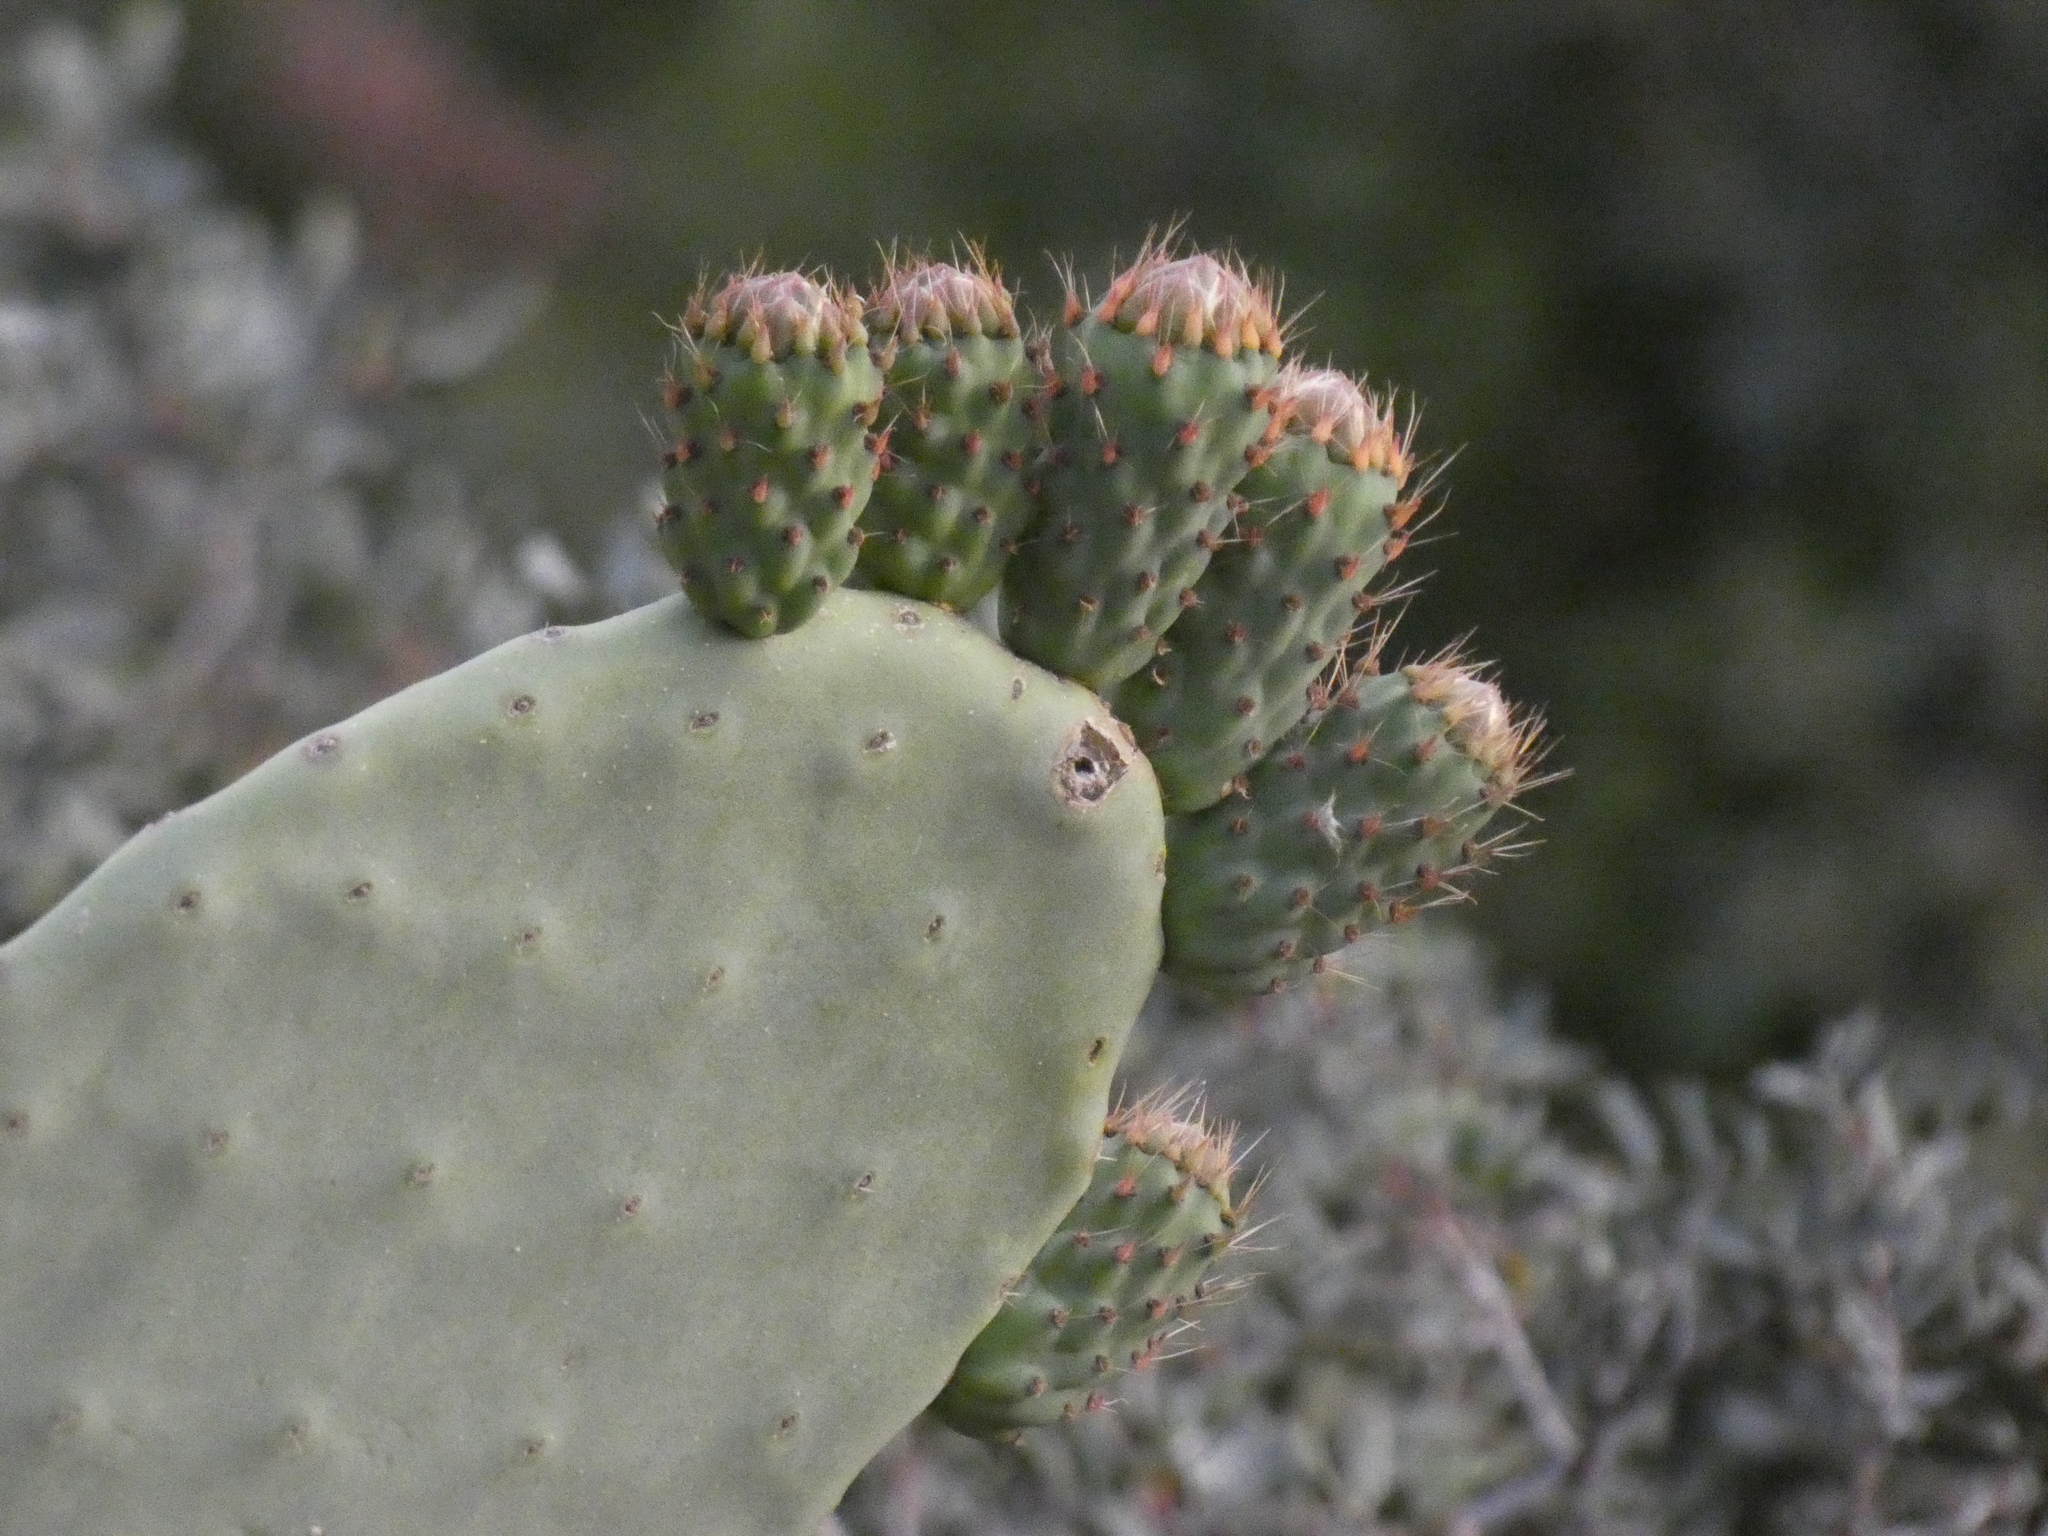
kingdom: Plantae
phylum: Tracheophyta
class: Magnoliopsida
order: Caryophyllales
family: Cactaceae
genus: Opuntia
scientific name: Opuntia ficus-indica
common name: Barbary fig
